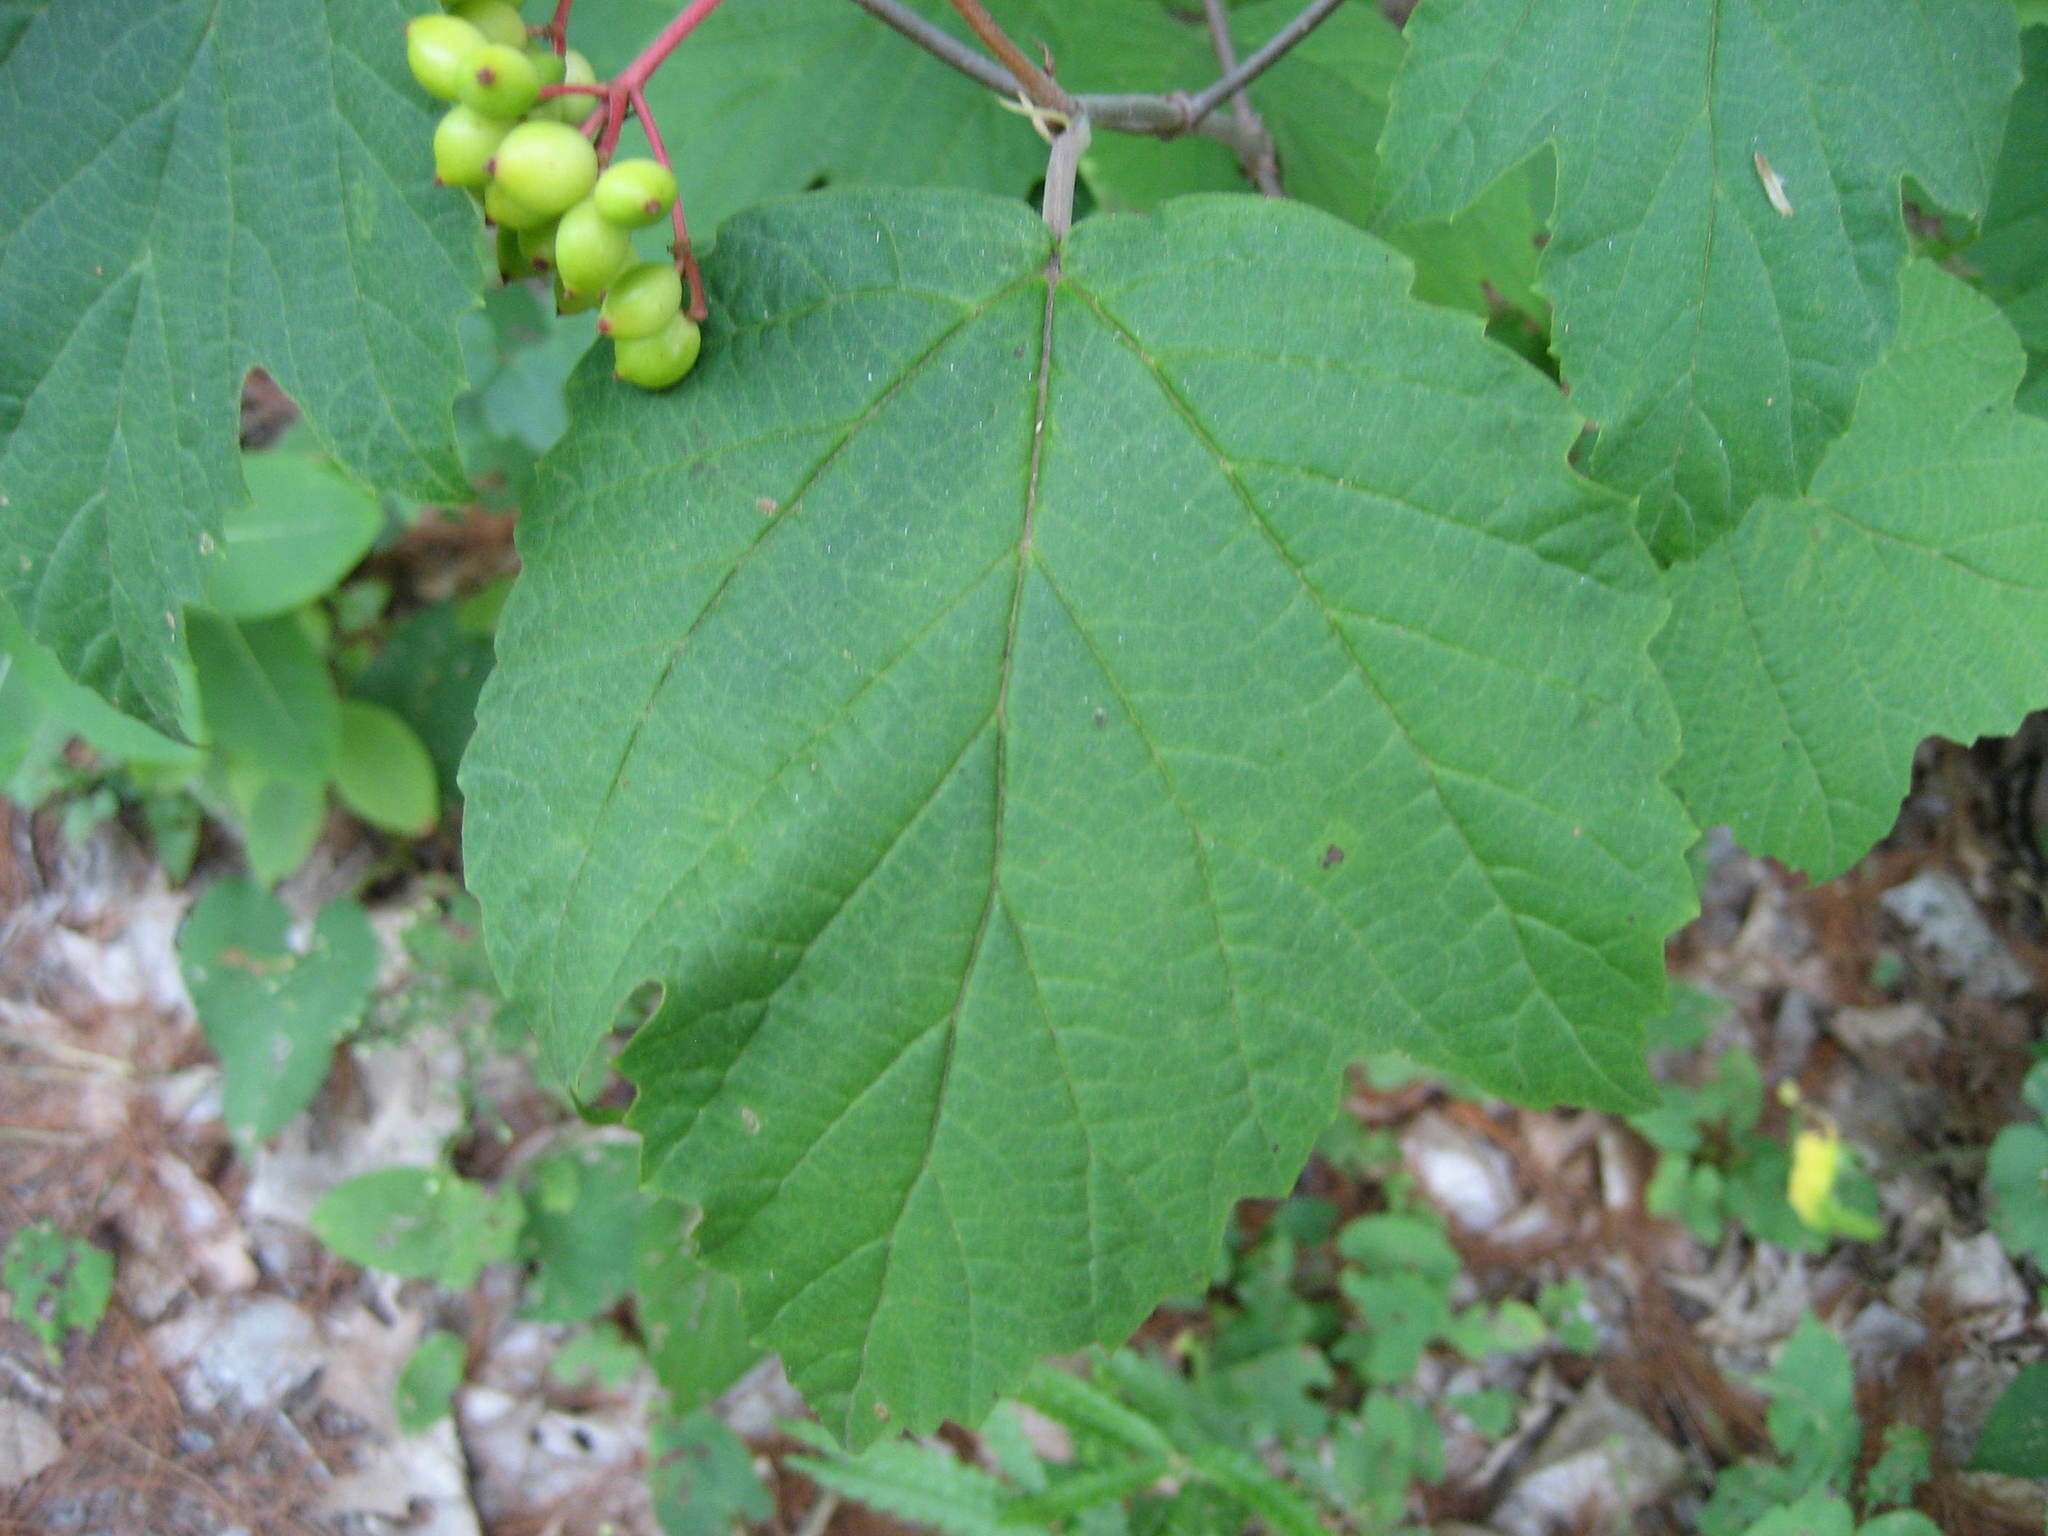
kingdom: Plantae
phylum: Tracheophyta
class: Magnoliopsida
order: Dipsacales
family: Viburnaceae
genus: Viburnum
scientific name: Viburnum acerifolium
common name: Dockmackie
